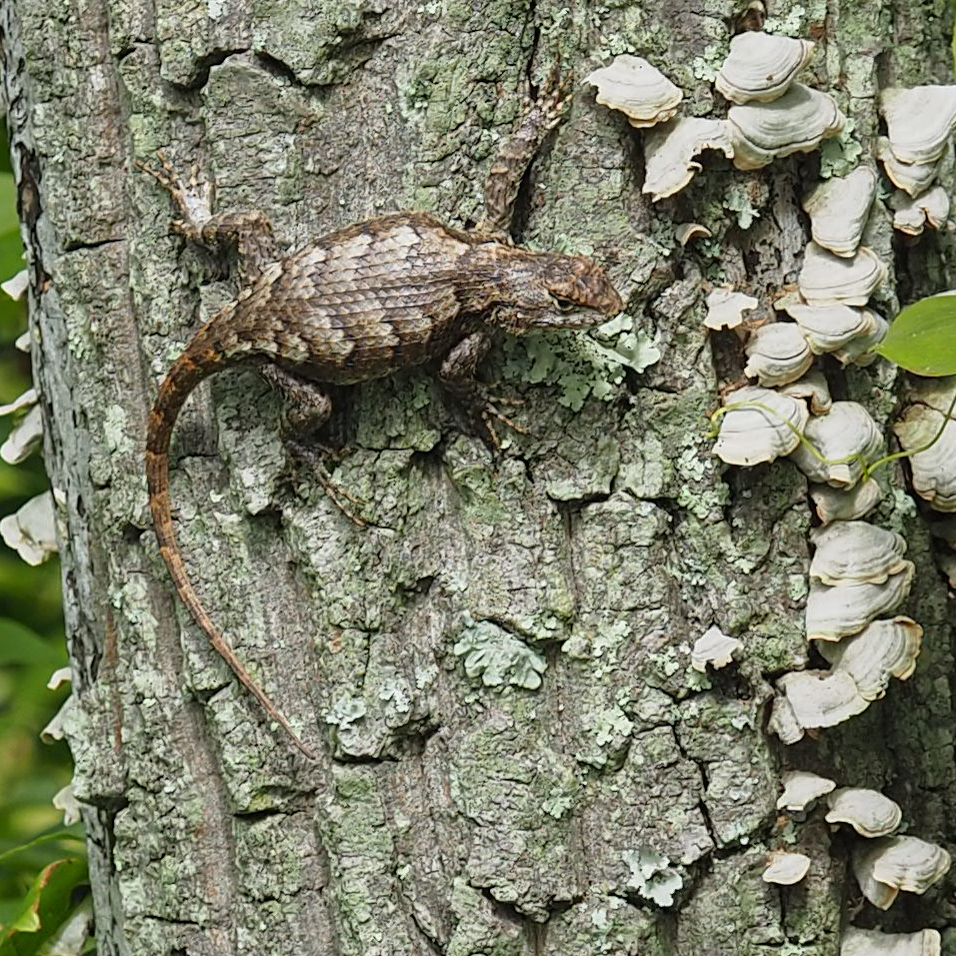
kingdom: Animalia
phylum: Chordata
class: Squamata
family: Phrynosomatidae
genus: Sceloporus
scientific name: Sceloporus undulatus
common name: Eastern fence lizard
